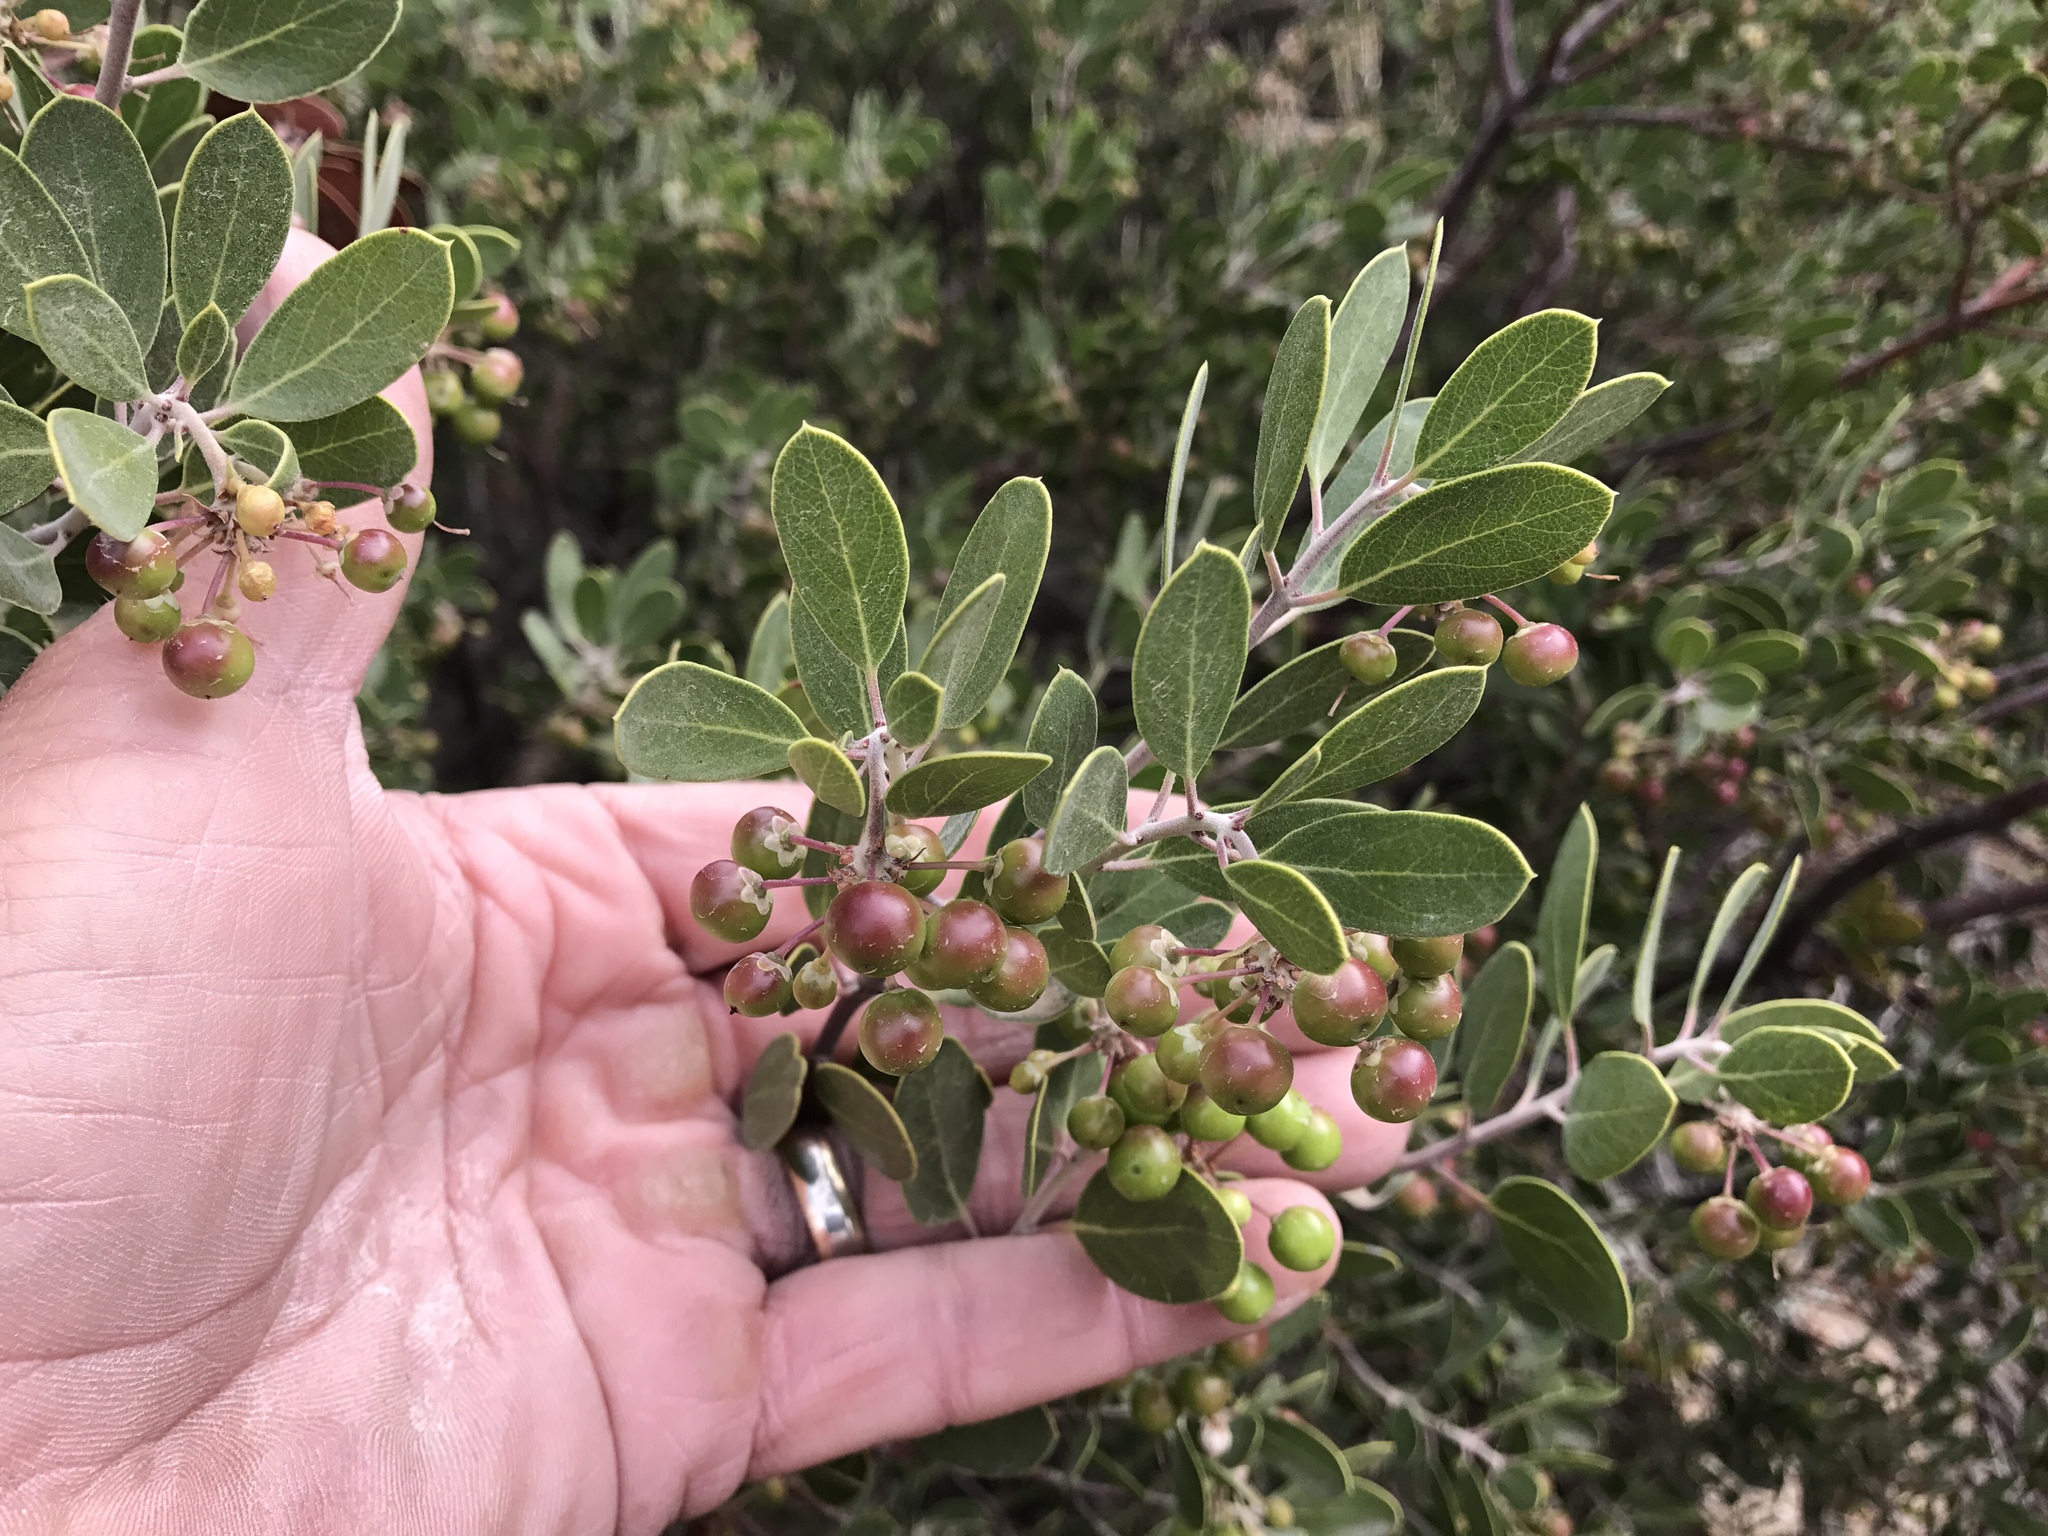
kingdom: Plantae
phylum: Tracheophyta
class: Magnoliopsida
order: Ericales
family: Ericaceae
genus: Arctostaphylos
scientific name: Arctostaphylos pungens
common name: Mexican manzanita
